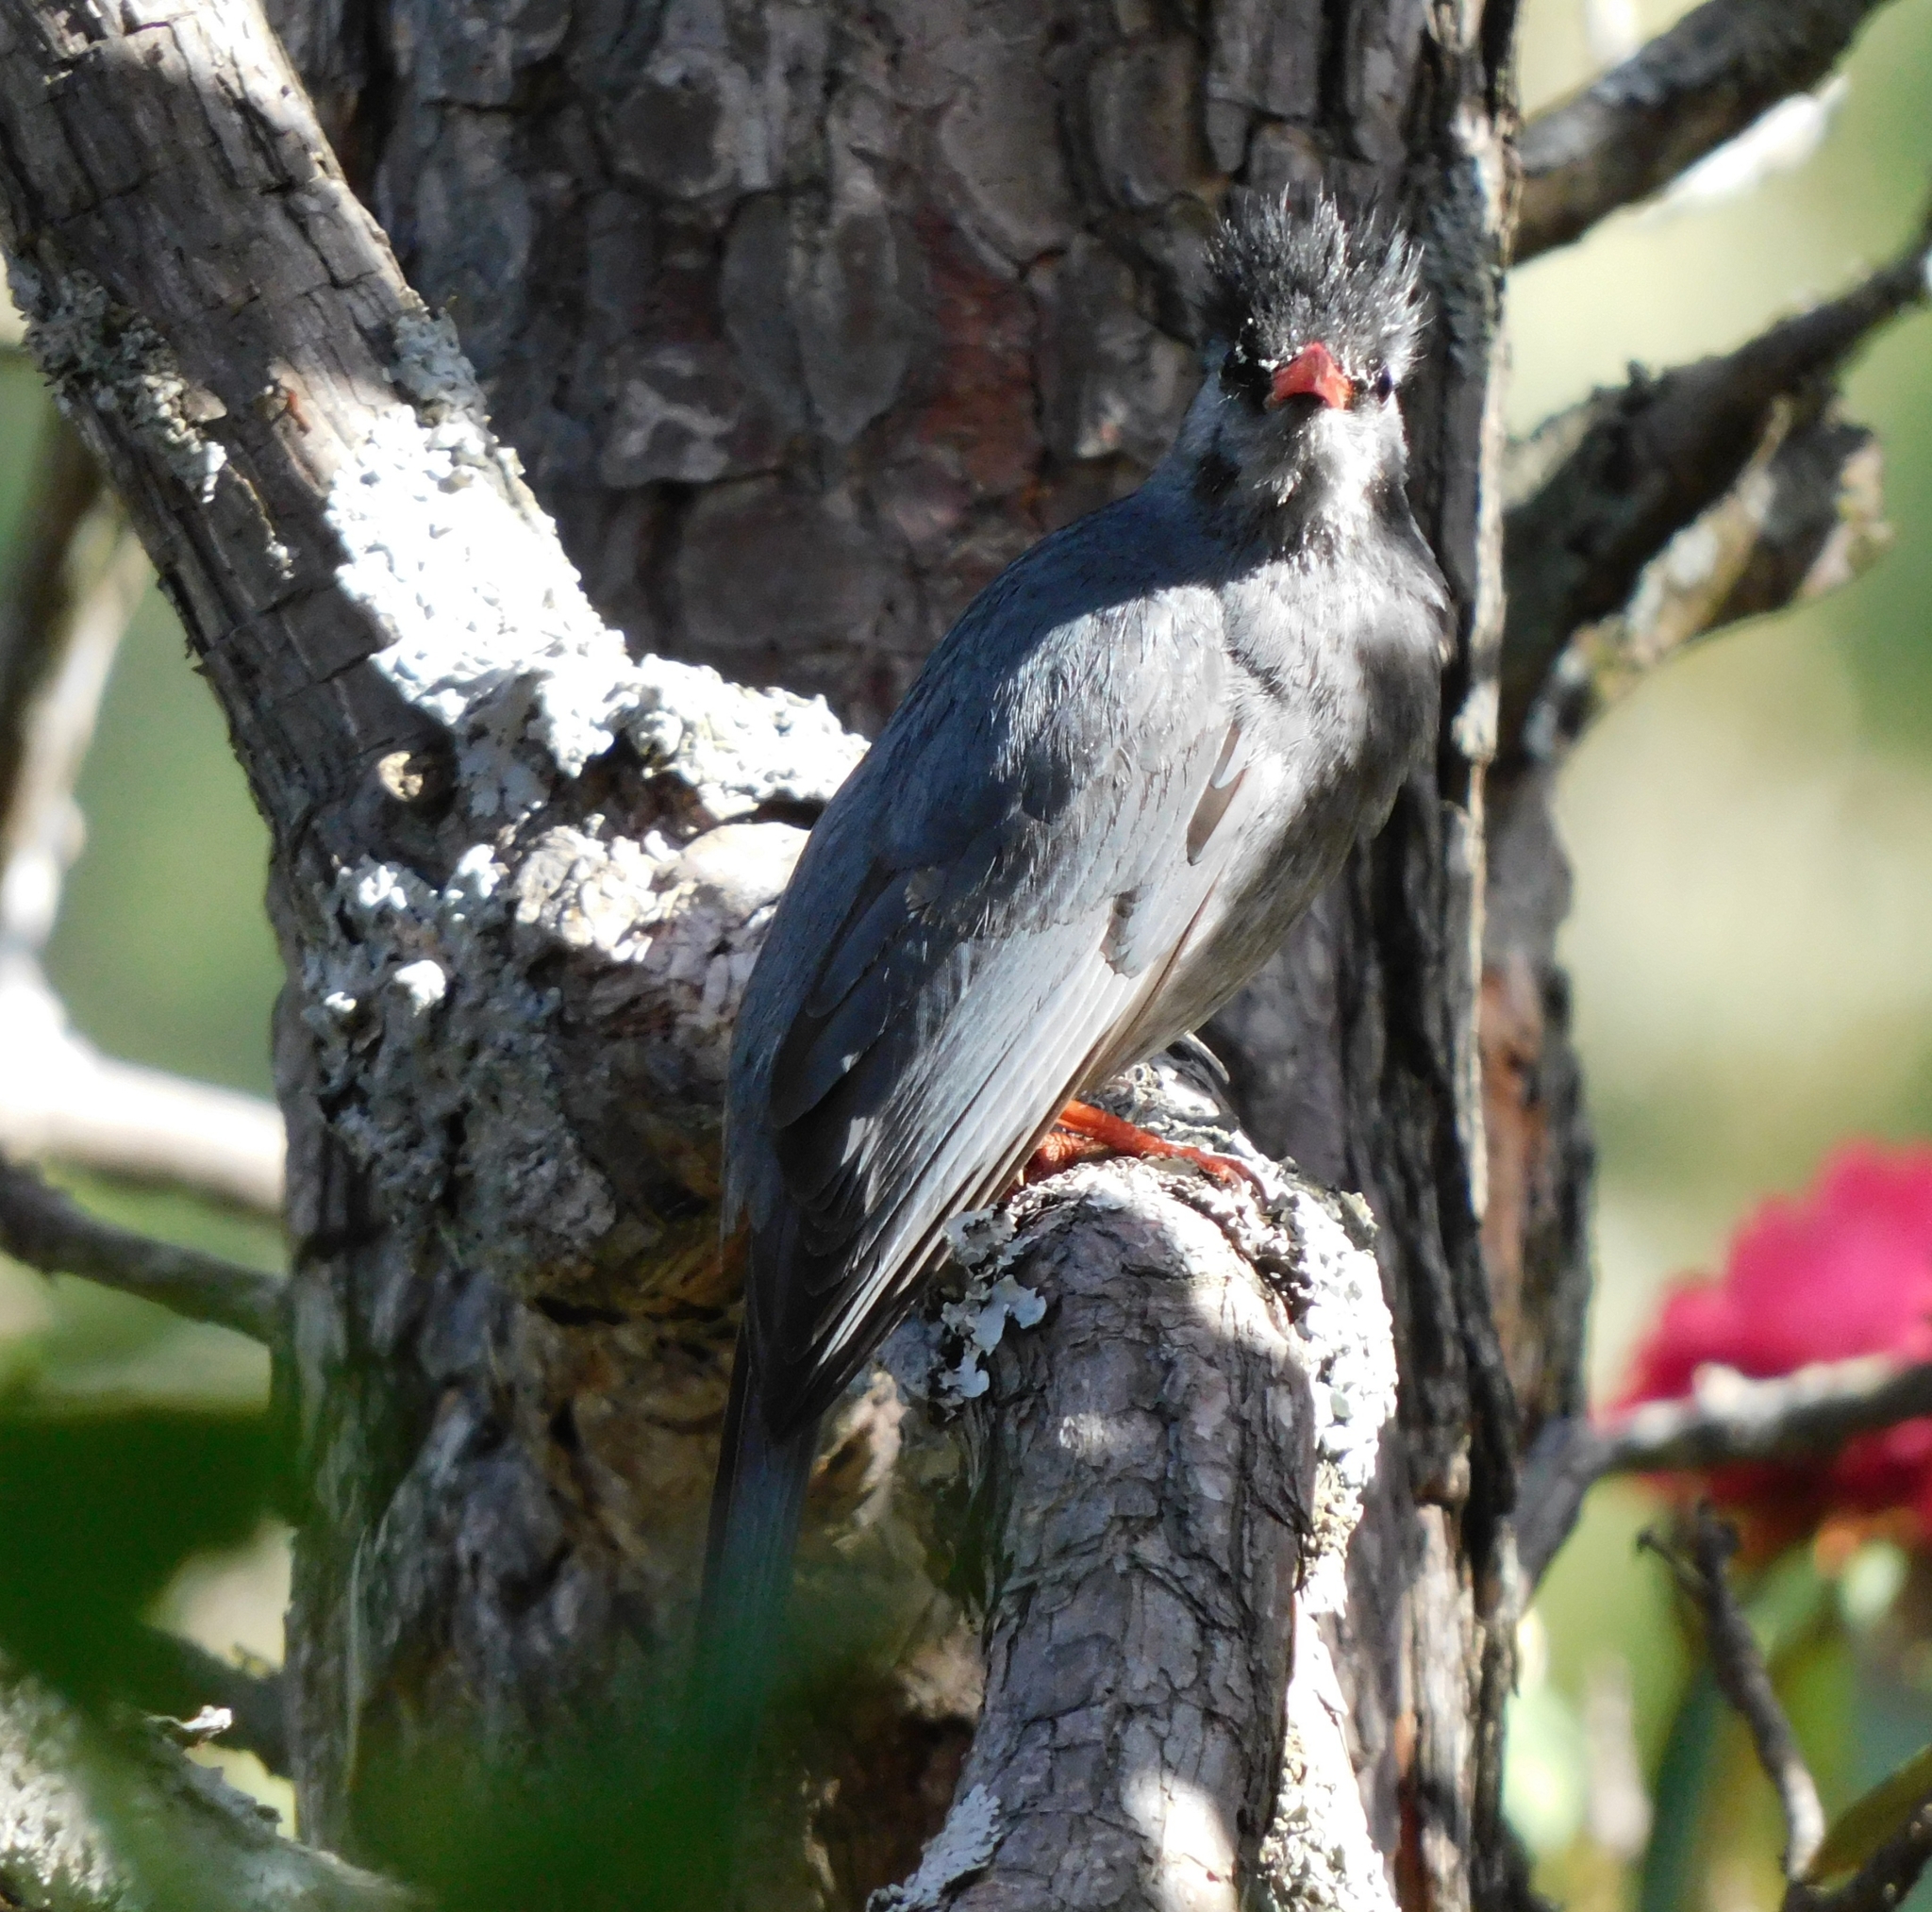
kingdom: Animalia
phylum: Chordata
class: Aves
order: Passeriformes
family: Pycnonotidae
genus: Hypsipetes
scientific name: Hypsipetes leucocephalus
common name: Black bulbul
